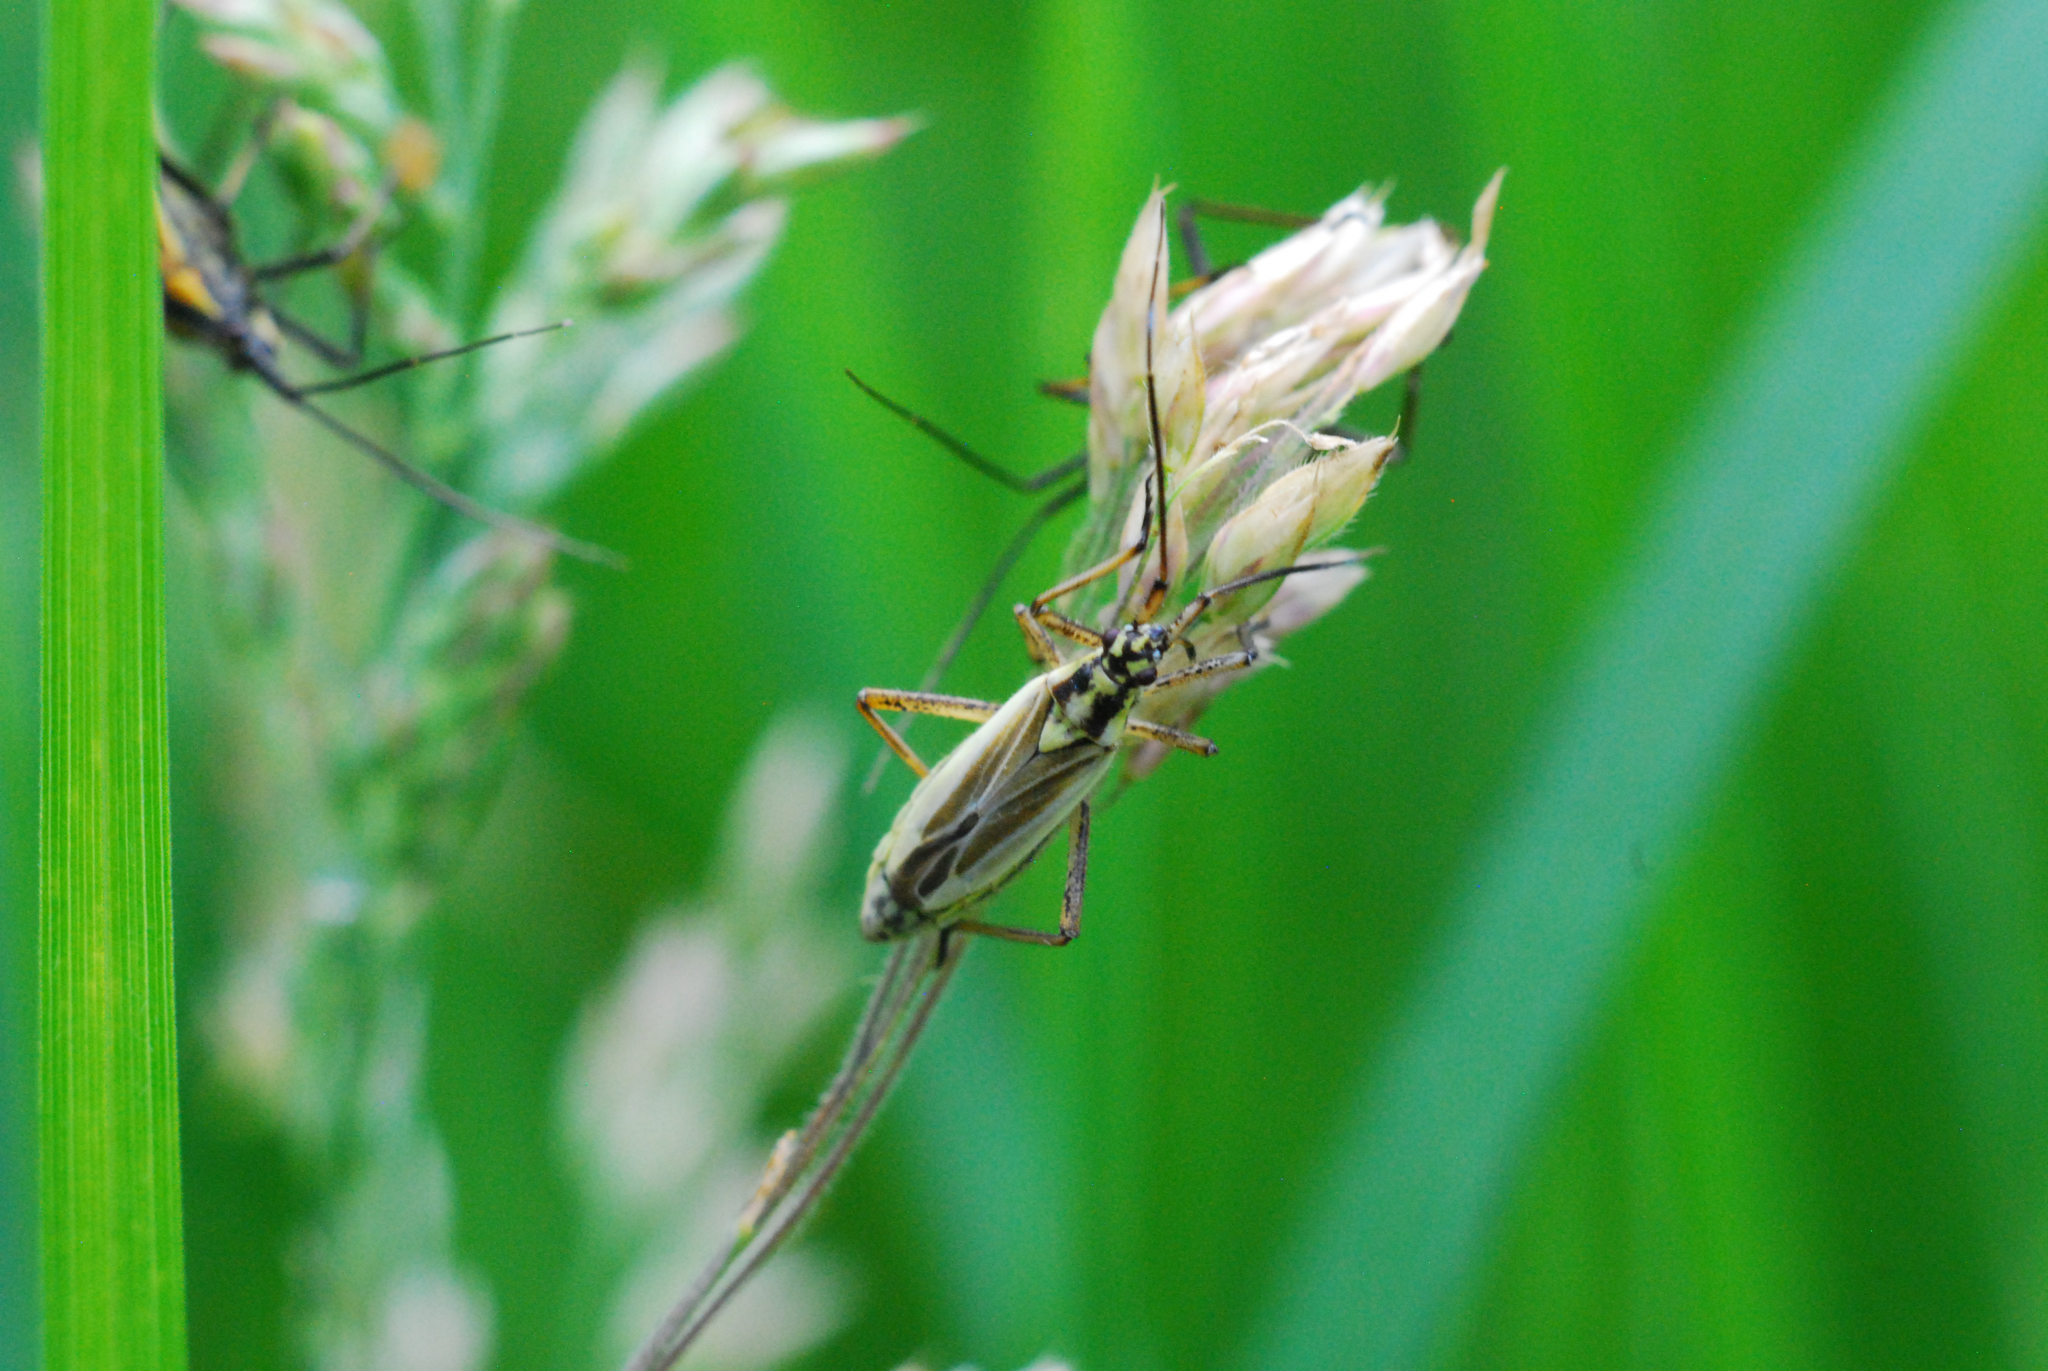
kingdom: Animalia
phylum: Arthropoda
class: Insecta
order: Hemiptera
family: Miridae
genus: Leptopterna
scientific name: Leptopterna dolabrata
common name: Meadow plant bug
